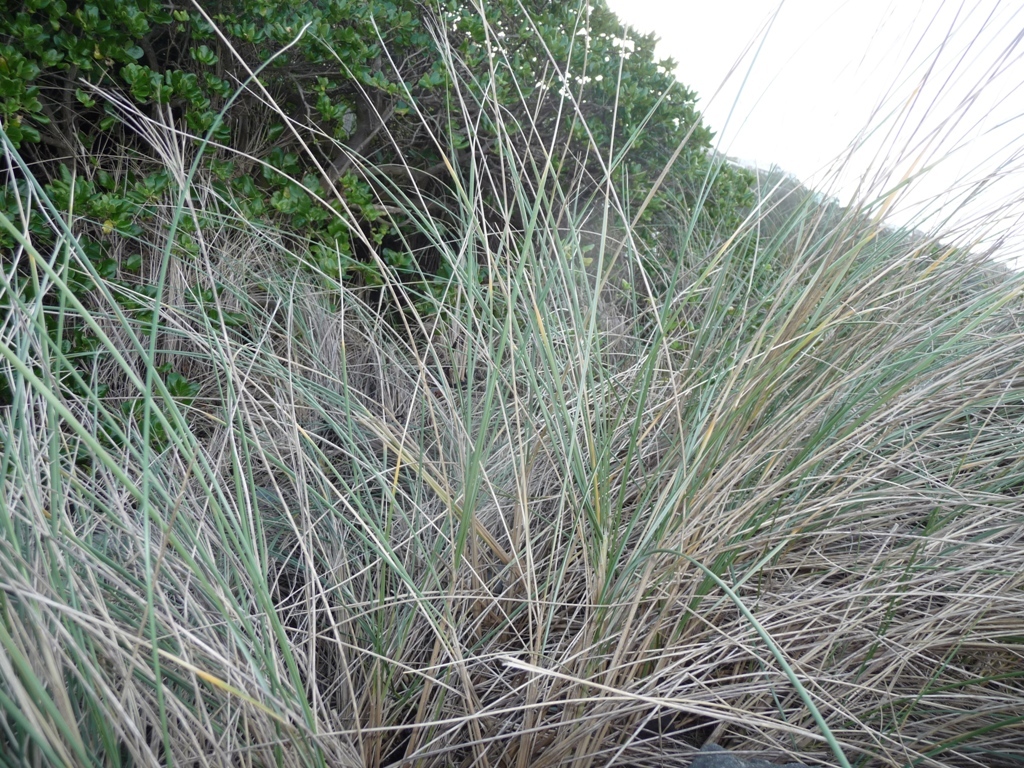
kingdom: Plantae
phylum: Tracheophyta
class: Liliopsida
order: Poales
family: Poaceae
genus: Calamagrostis
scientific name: Calamagrostis arenaria
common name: European beachgrass
